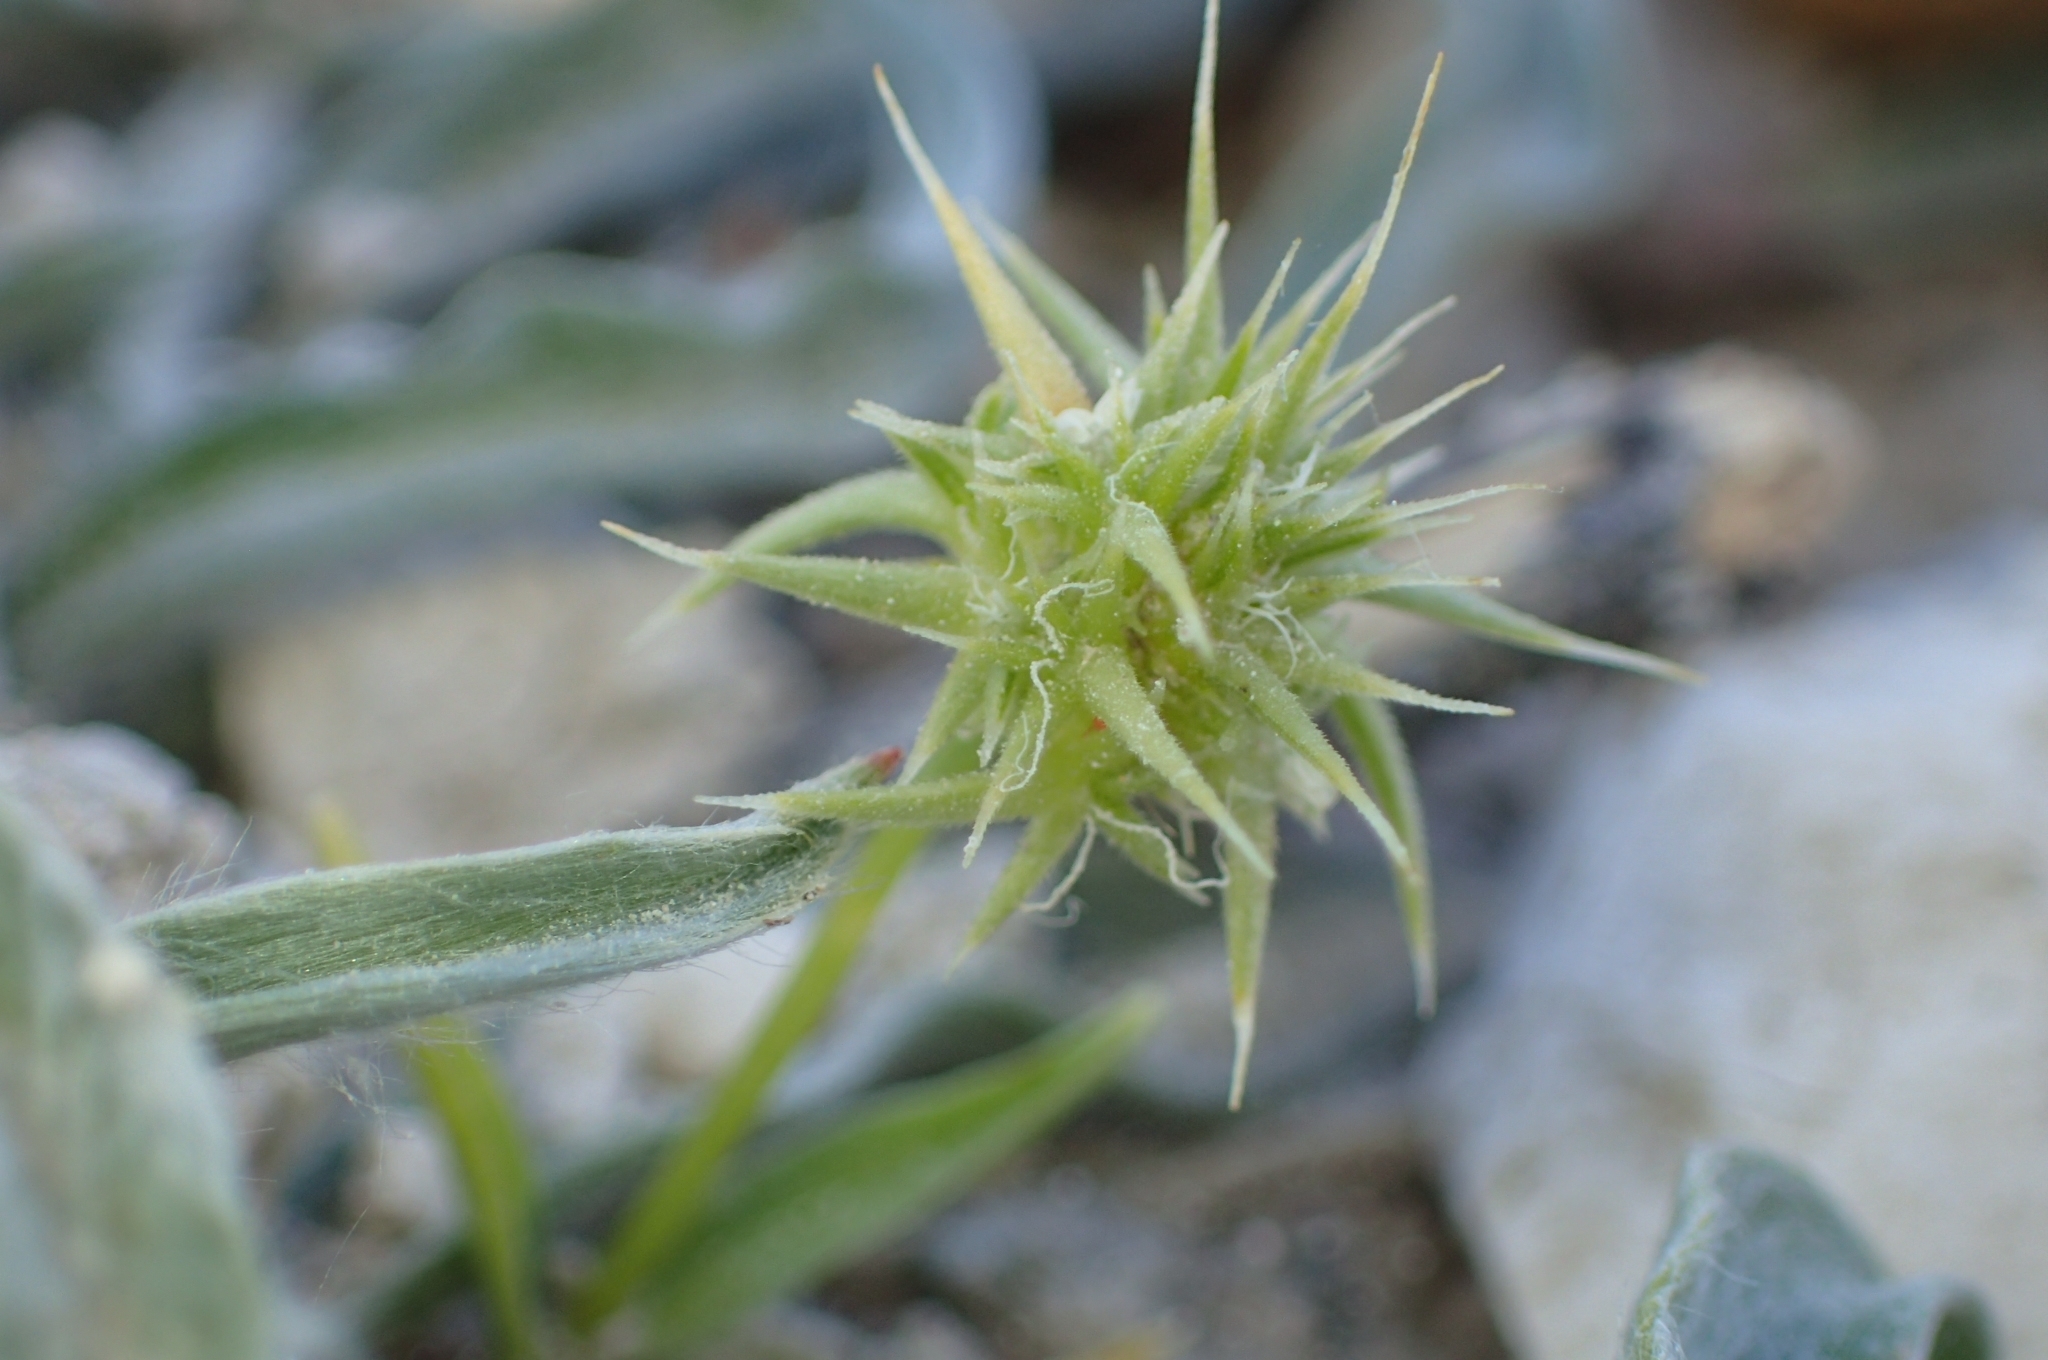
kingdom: Plantae
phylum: Tracheophyta
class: Liliopsida
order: Poales
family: Poaceae
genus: Echinaria
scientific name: Echinaria capitata
